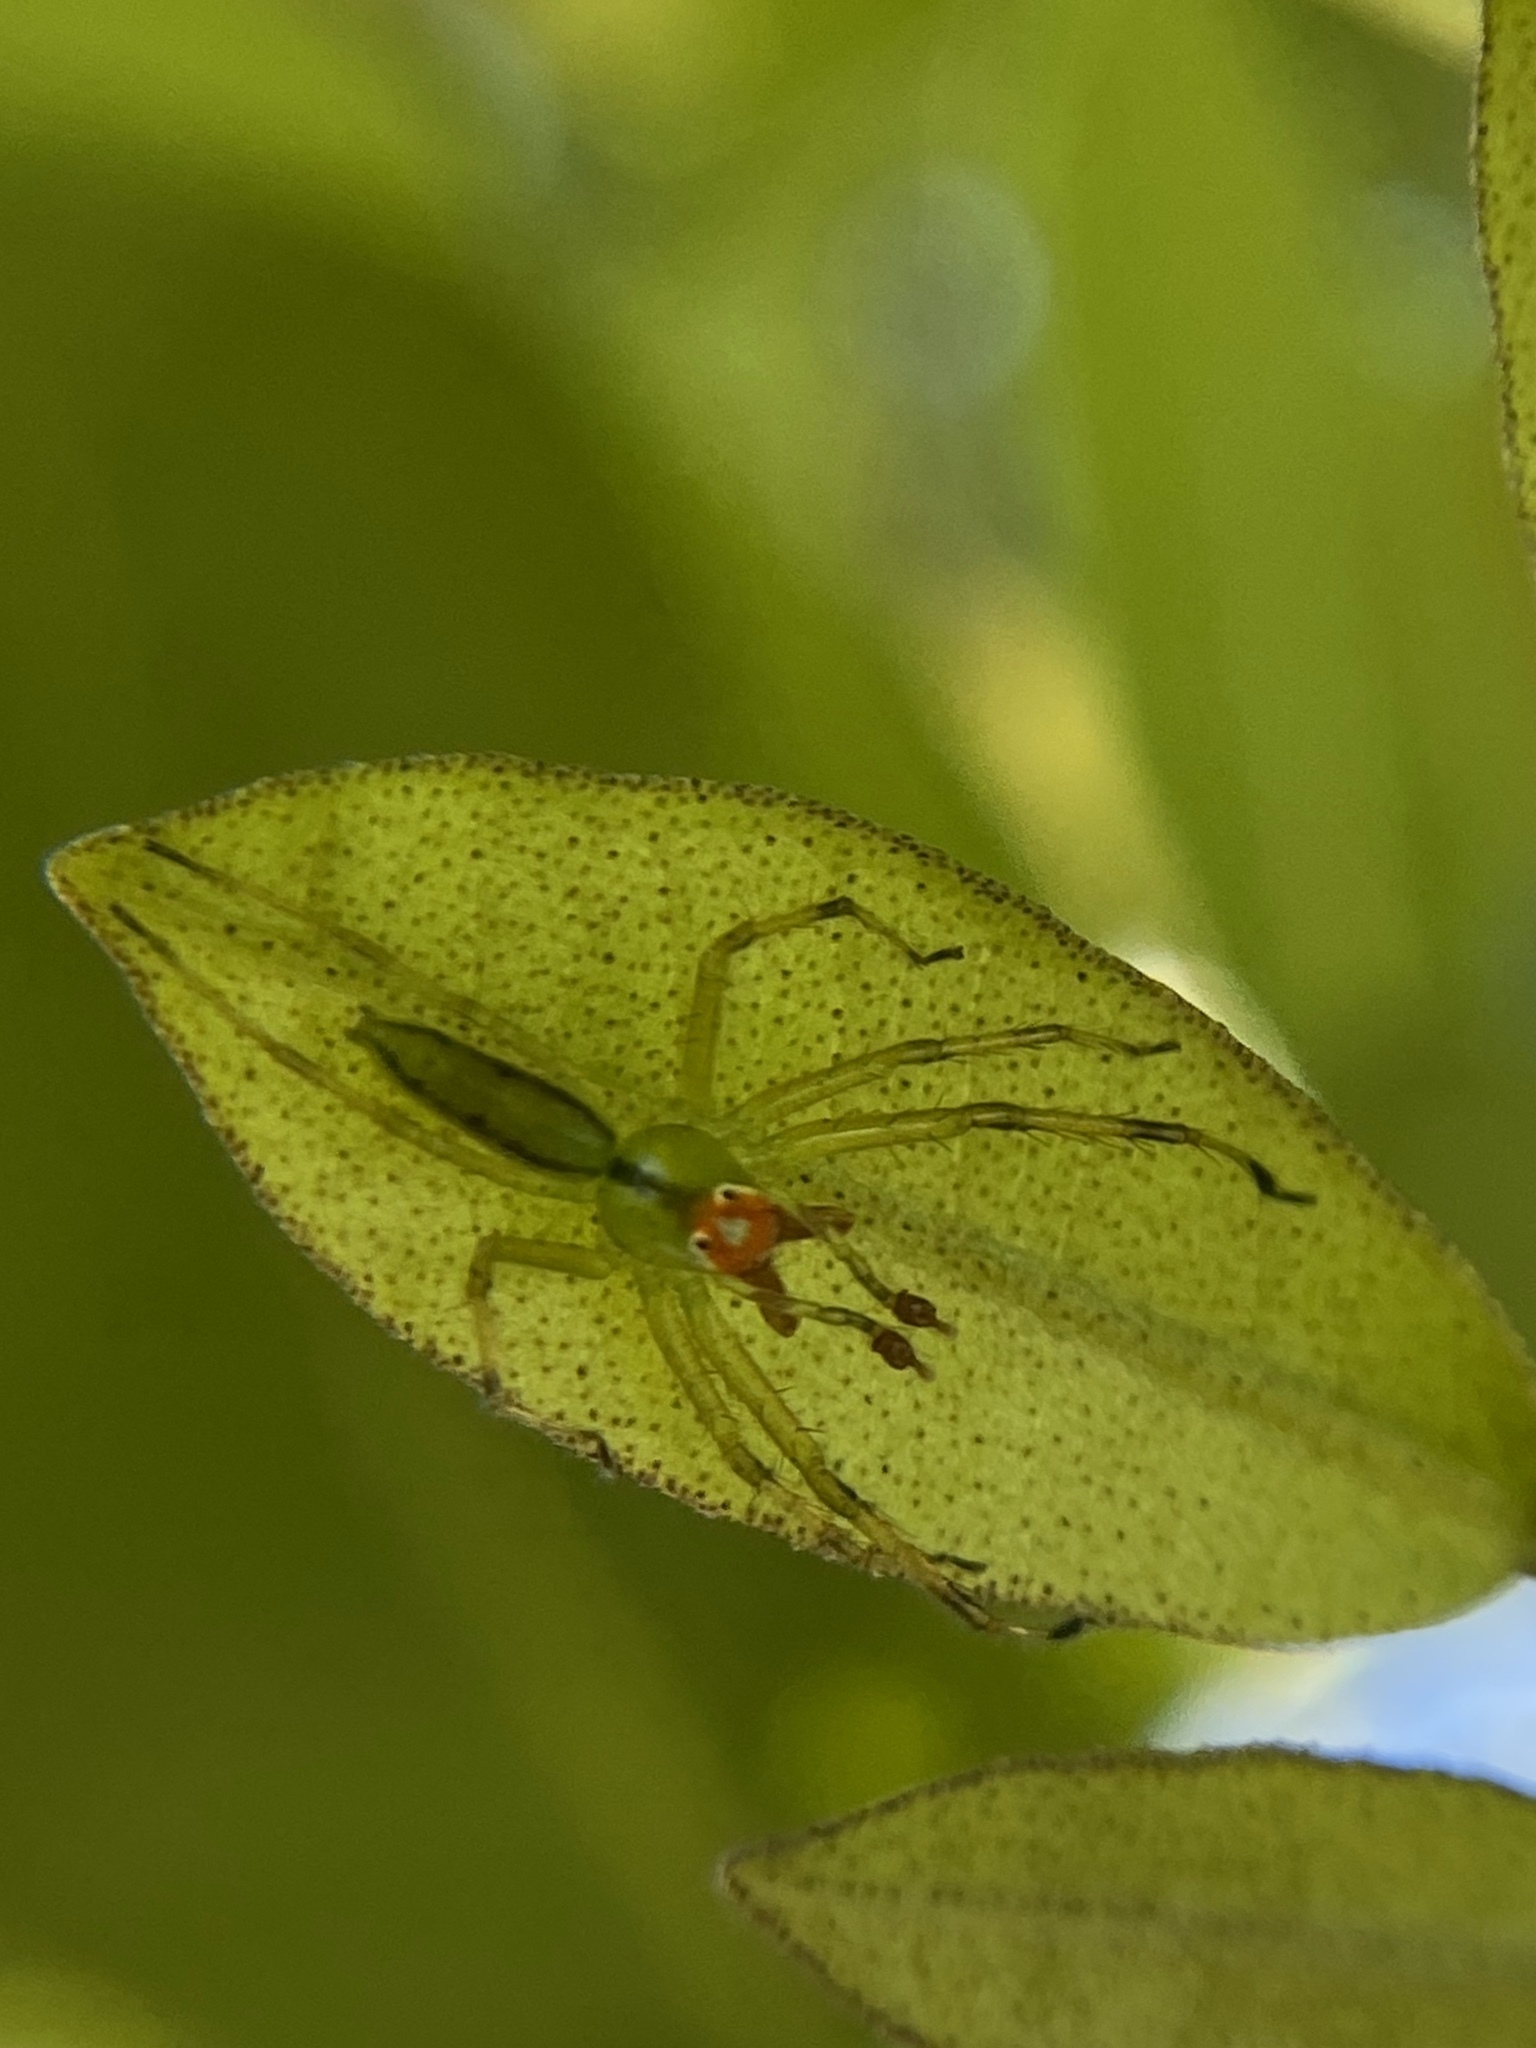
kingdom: Animalia
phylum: Arthropoda
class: Arachnida
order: Araneae
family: Salticidae
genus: Lyssomanes
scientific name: Lyssomanes viridis
